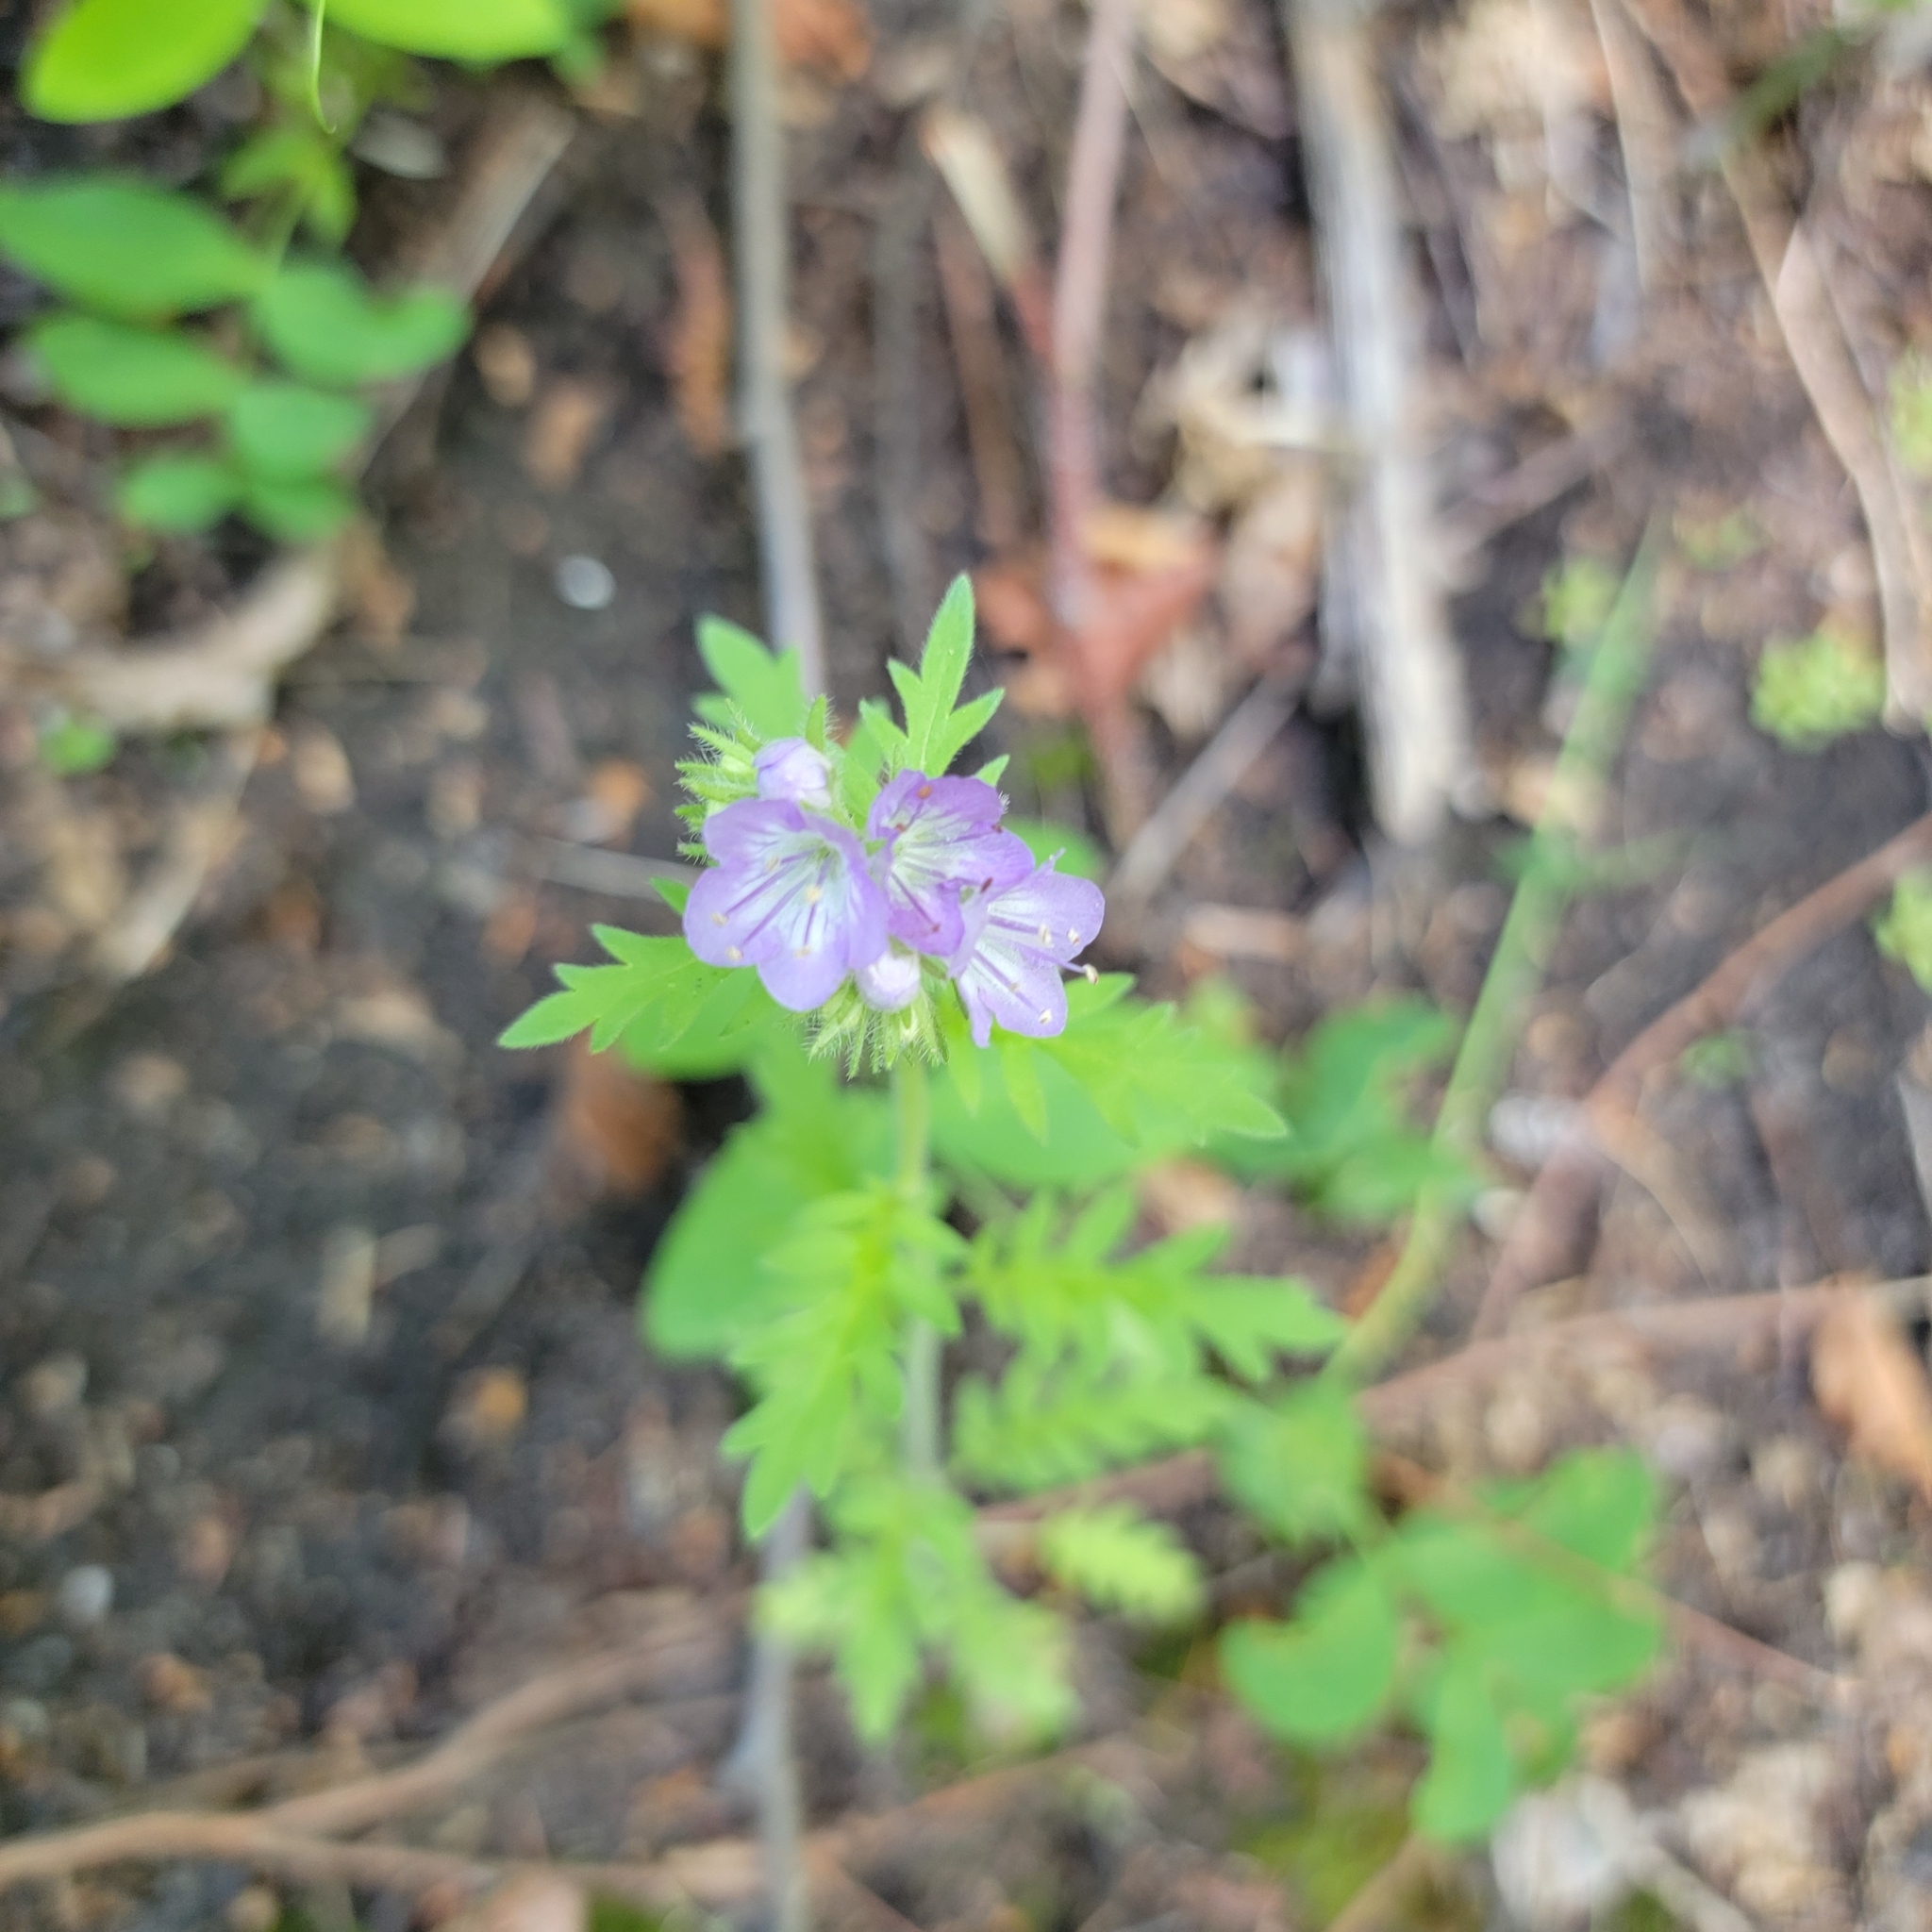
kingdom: Plantae
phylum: Tracheophyta
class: Magnoliopsida
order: Boraginales
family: Hydrophyllaceae
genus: Phacelia
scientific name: Phacelia franklinii
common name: Franklin's phacelia
